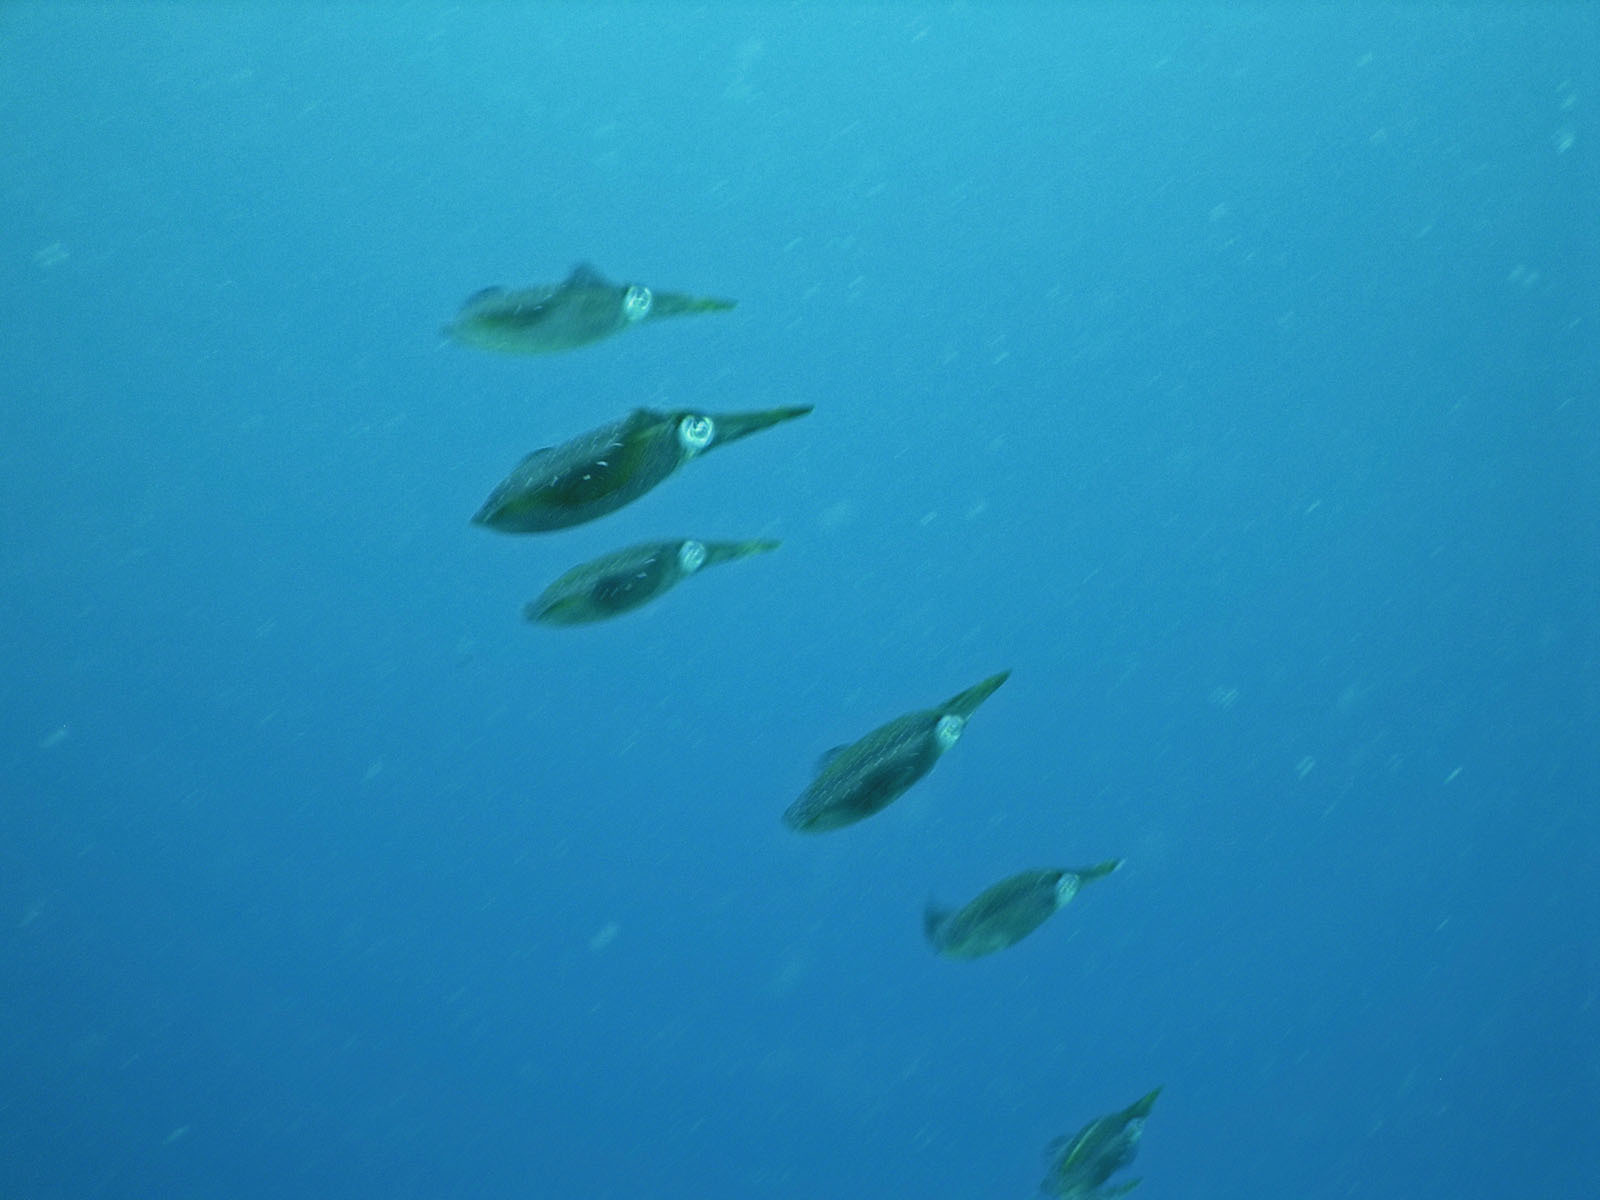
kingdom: Animalia
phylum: Mollusca
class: Cephalopoda
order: Myopsida
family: Loliginidae
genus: Sepioteuthis
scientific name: Sepioteuthis sepioidea
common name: Caribbean reef squid
